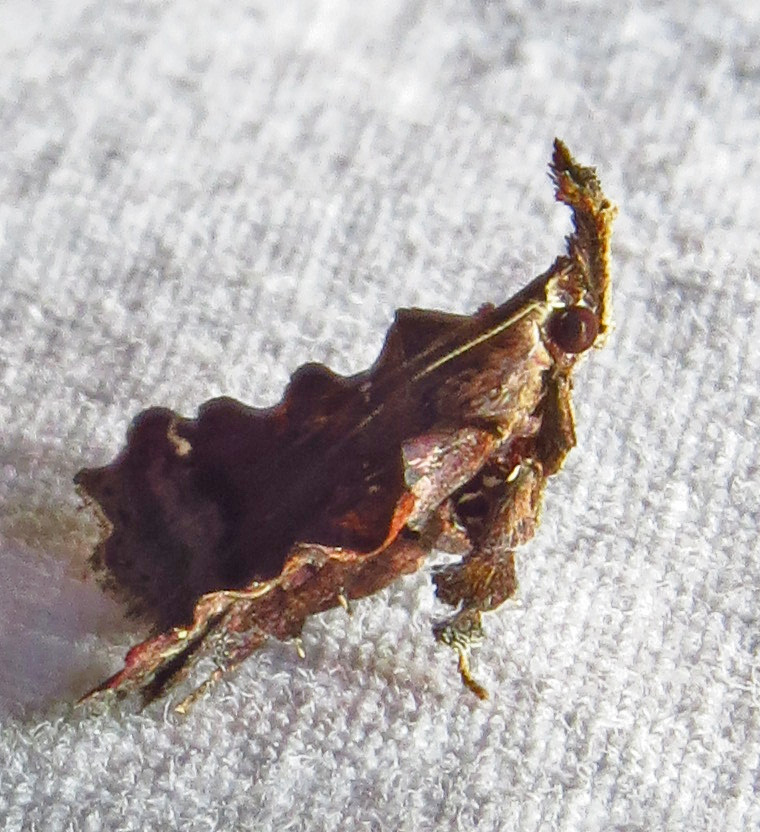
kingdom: Animalia
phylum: Arthropoda
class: Insecta
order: Lepidoptera
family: Pyralidae
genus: Clydonopteron
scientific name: Clydonopteron sacculana
